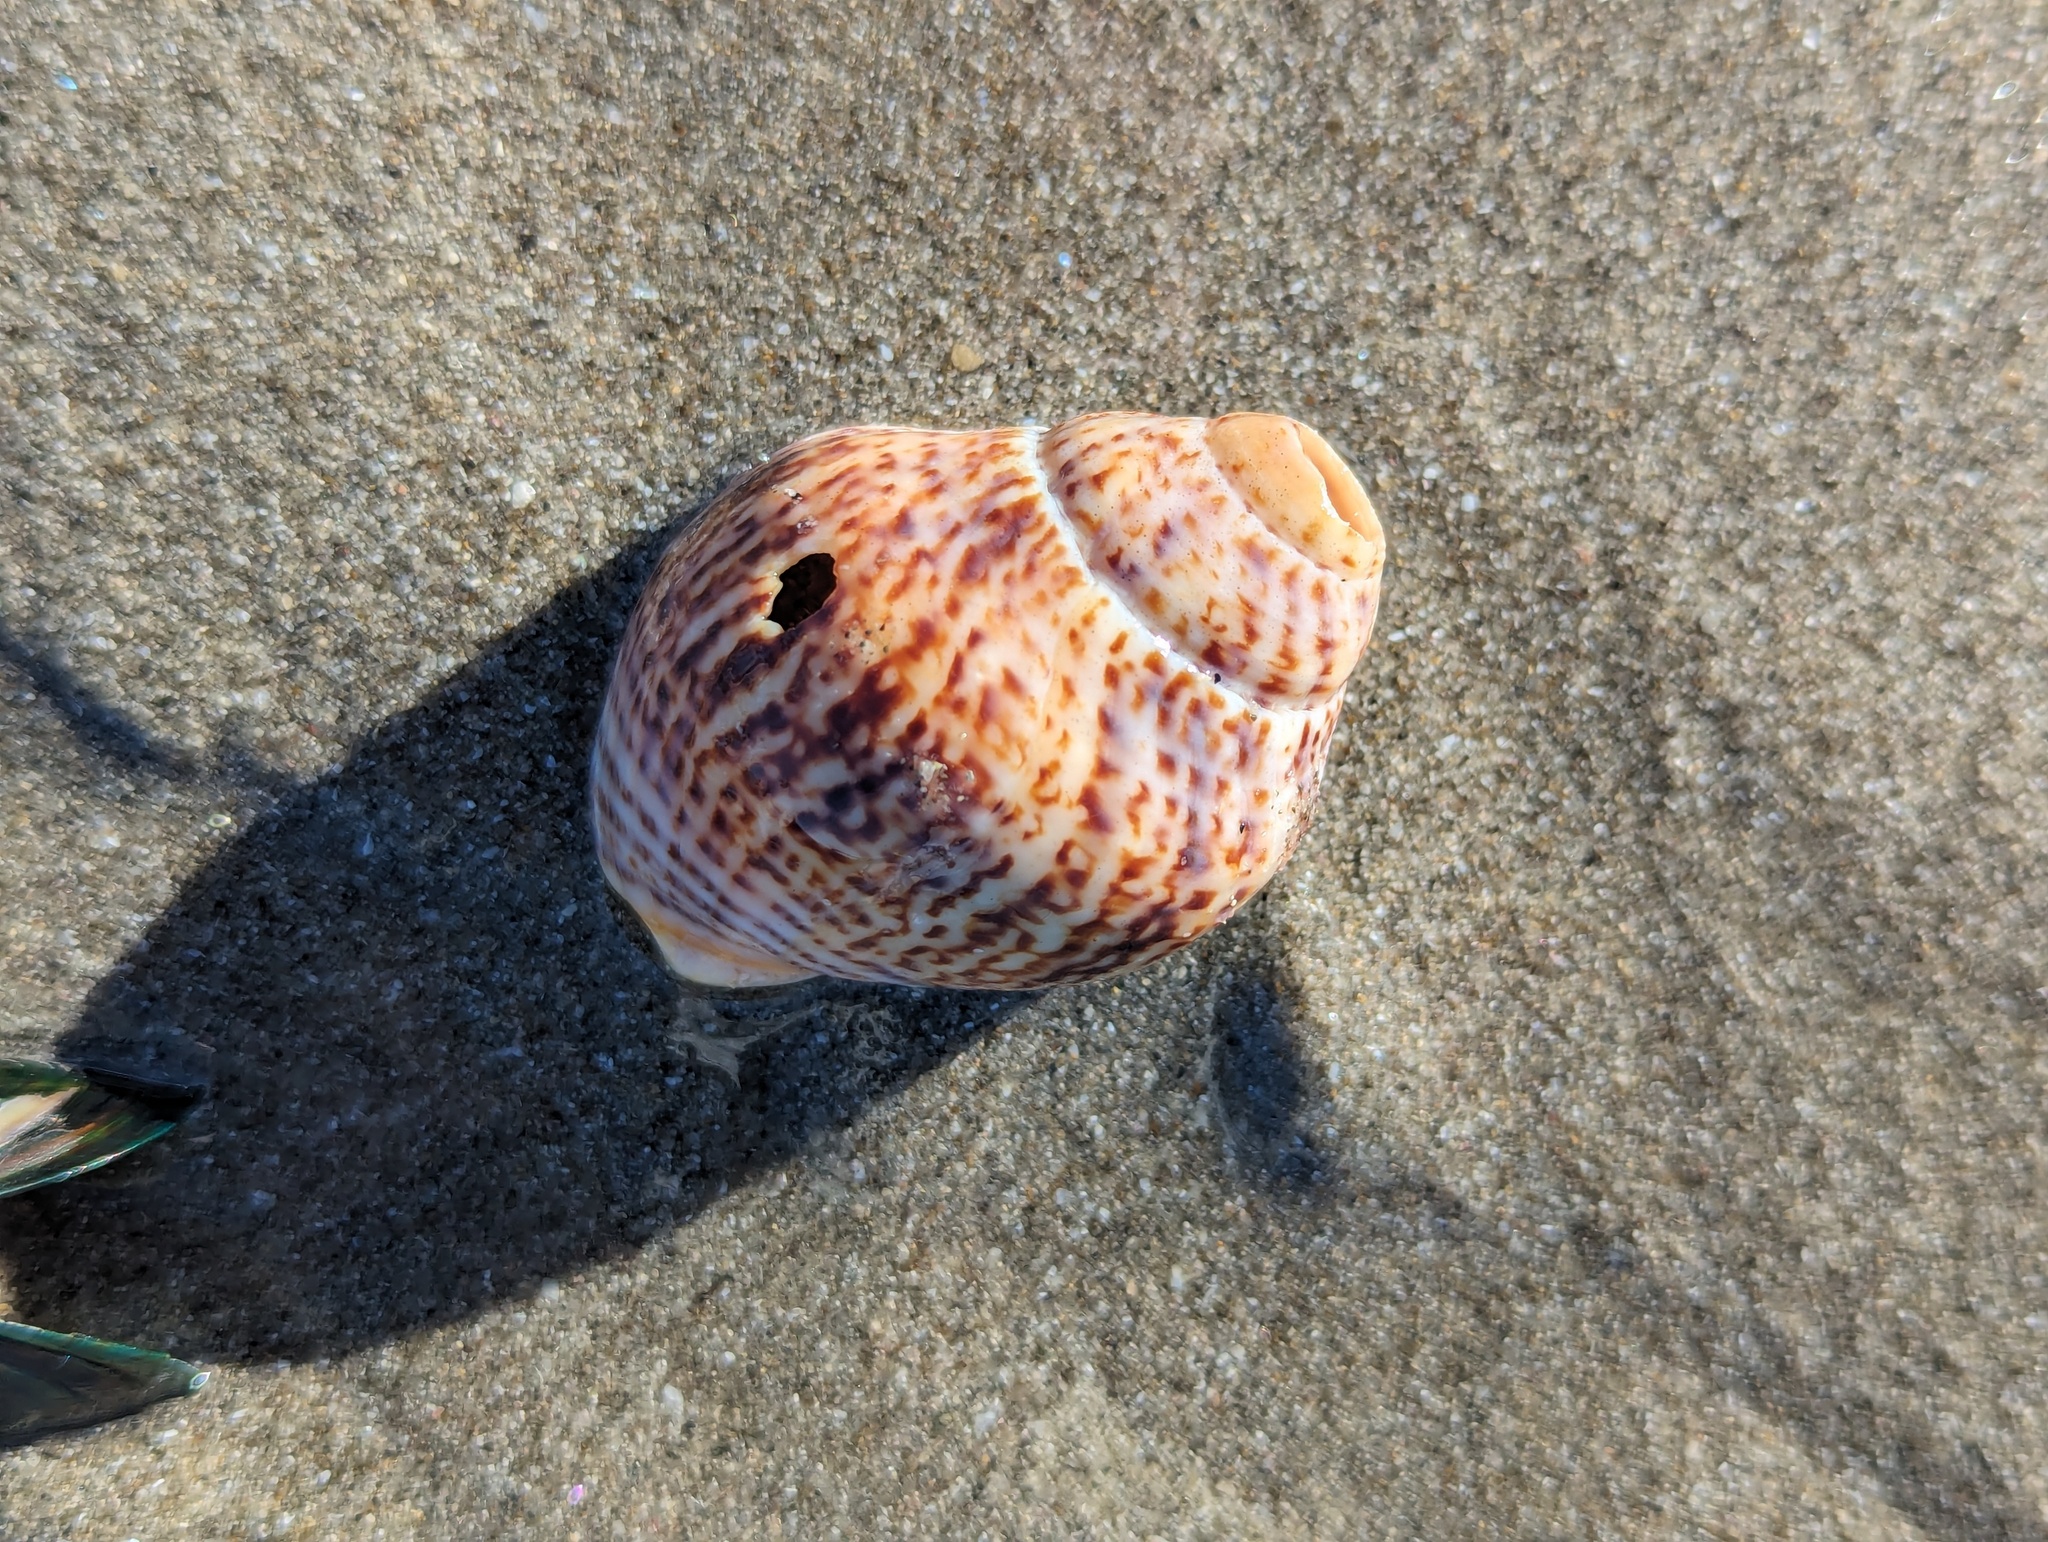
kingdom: Animalia
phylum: Mollusca
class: Gastropoda
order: Neogastropoda
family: Cominellidae
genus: Cominella
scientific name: Cominella adspersa
